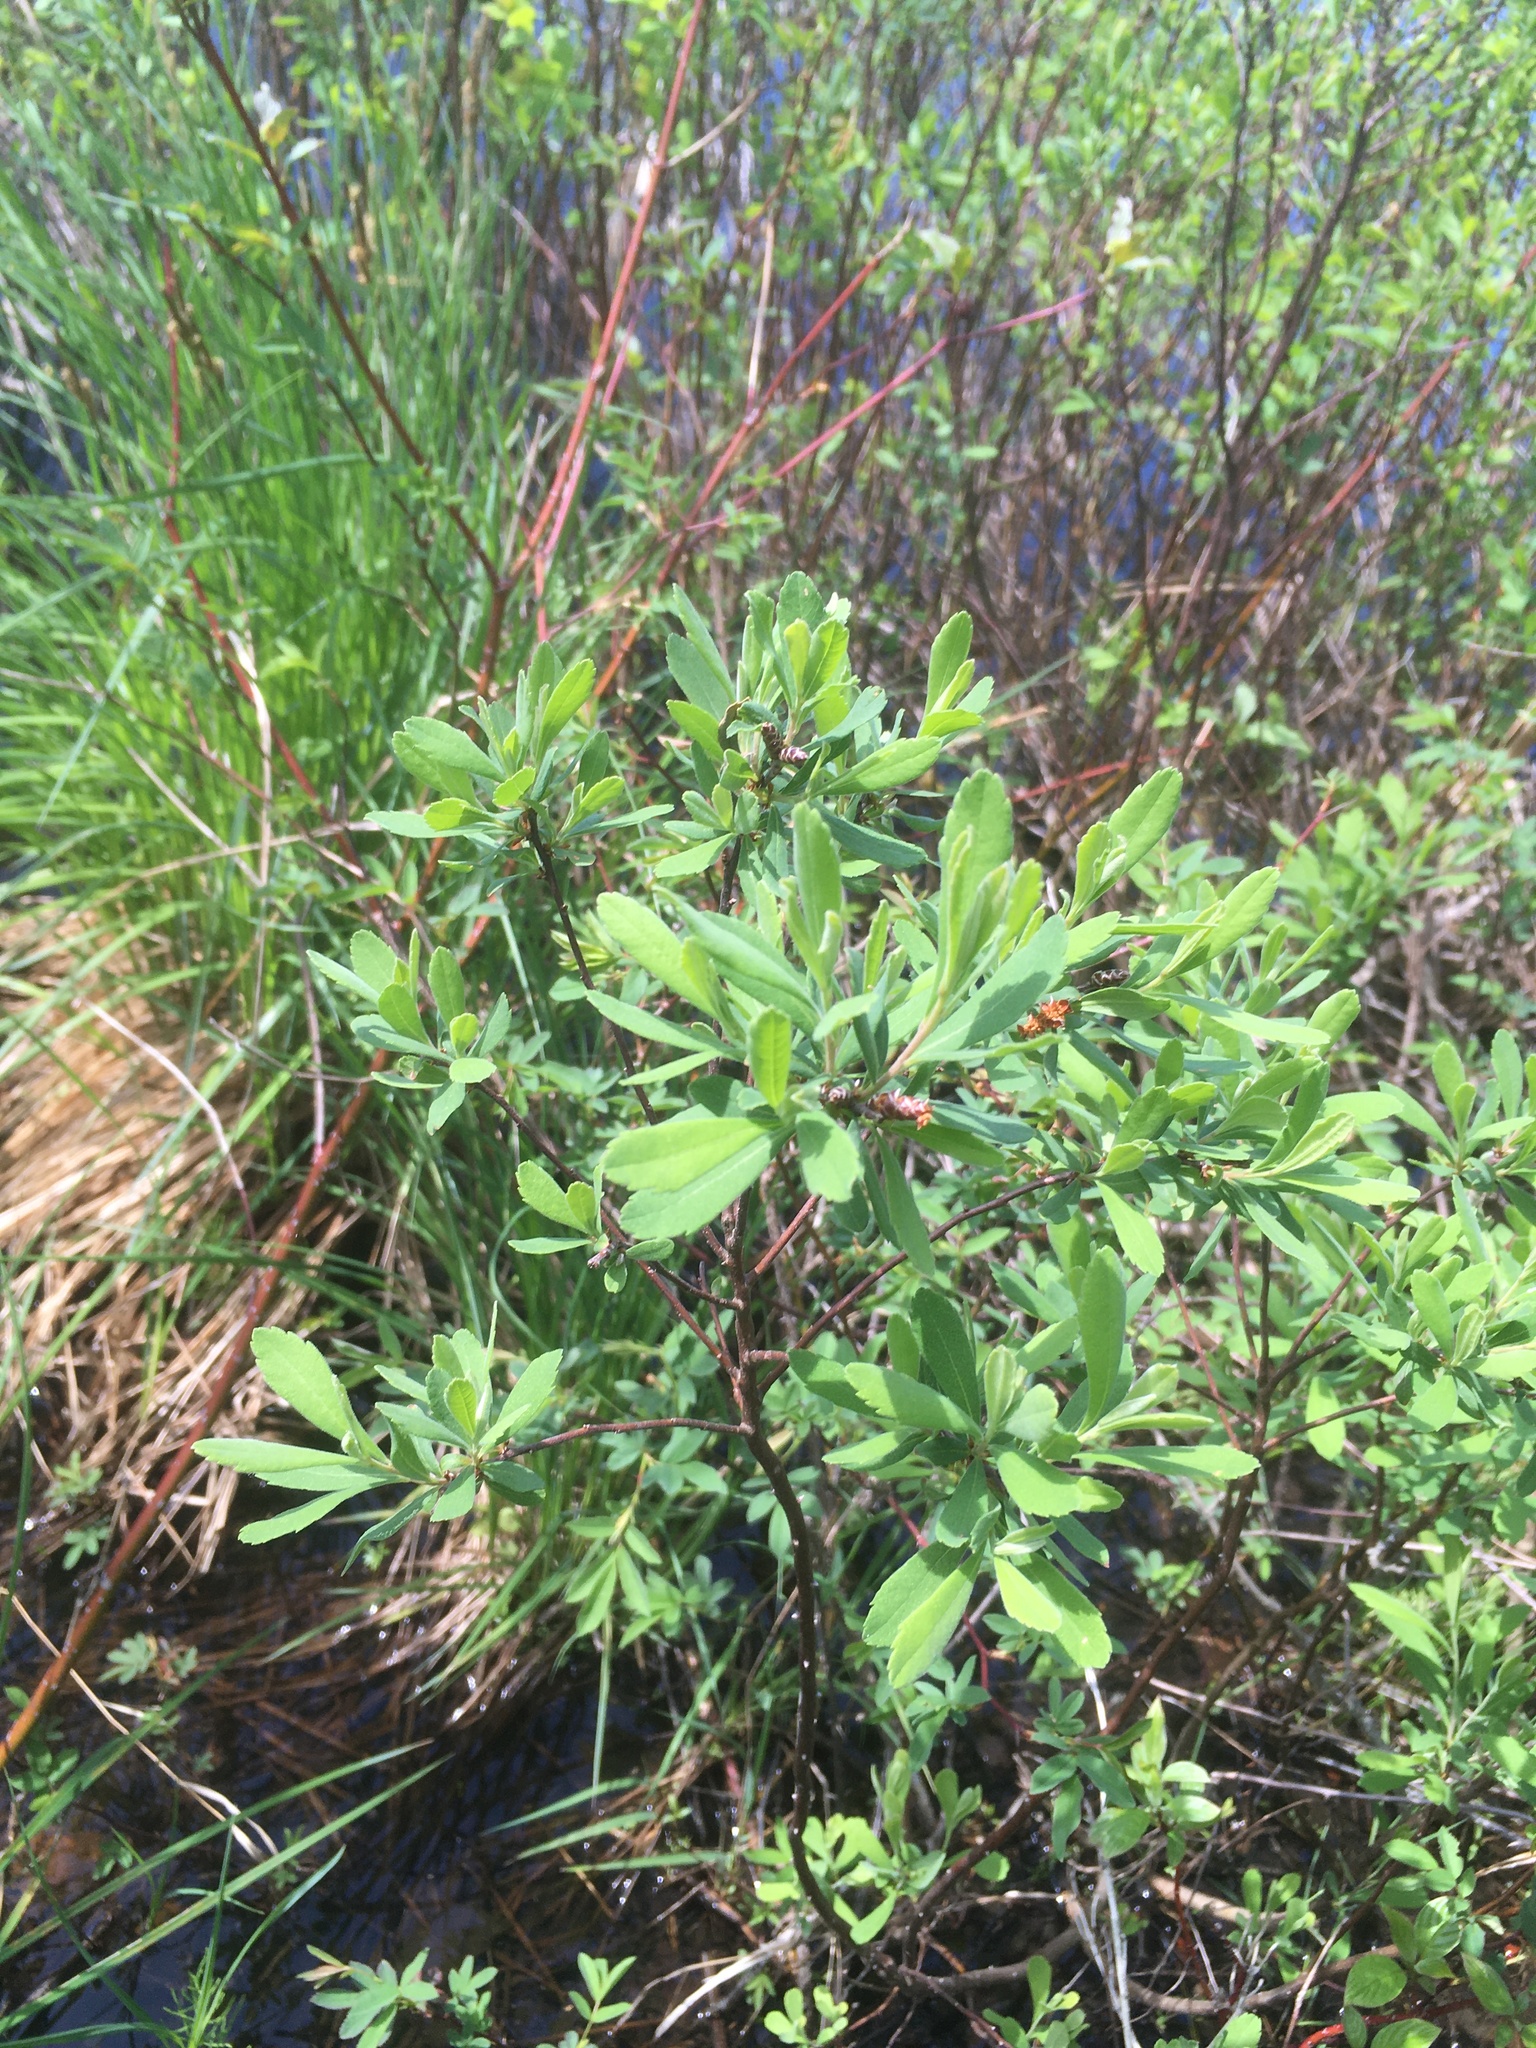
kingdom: Plantae
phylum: Tracheophyta
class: Magnoliopsida
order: Fagales
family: Myricaceae
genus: Myrica
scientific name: Myrica gale
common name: Sweet gale
